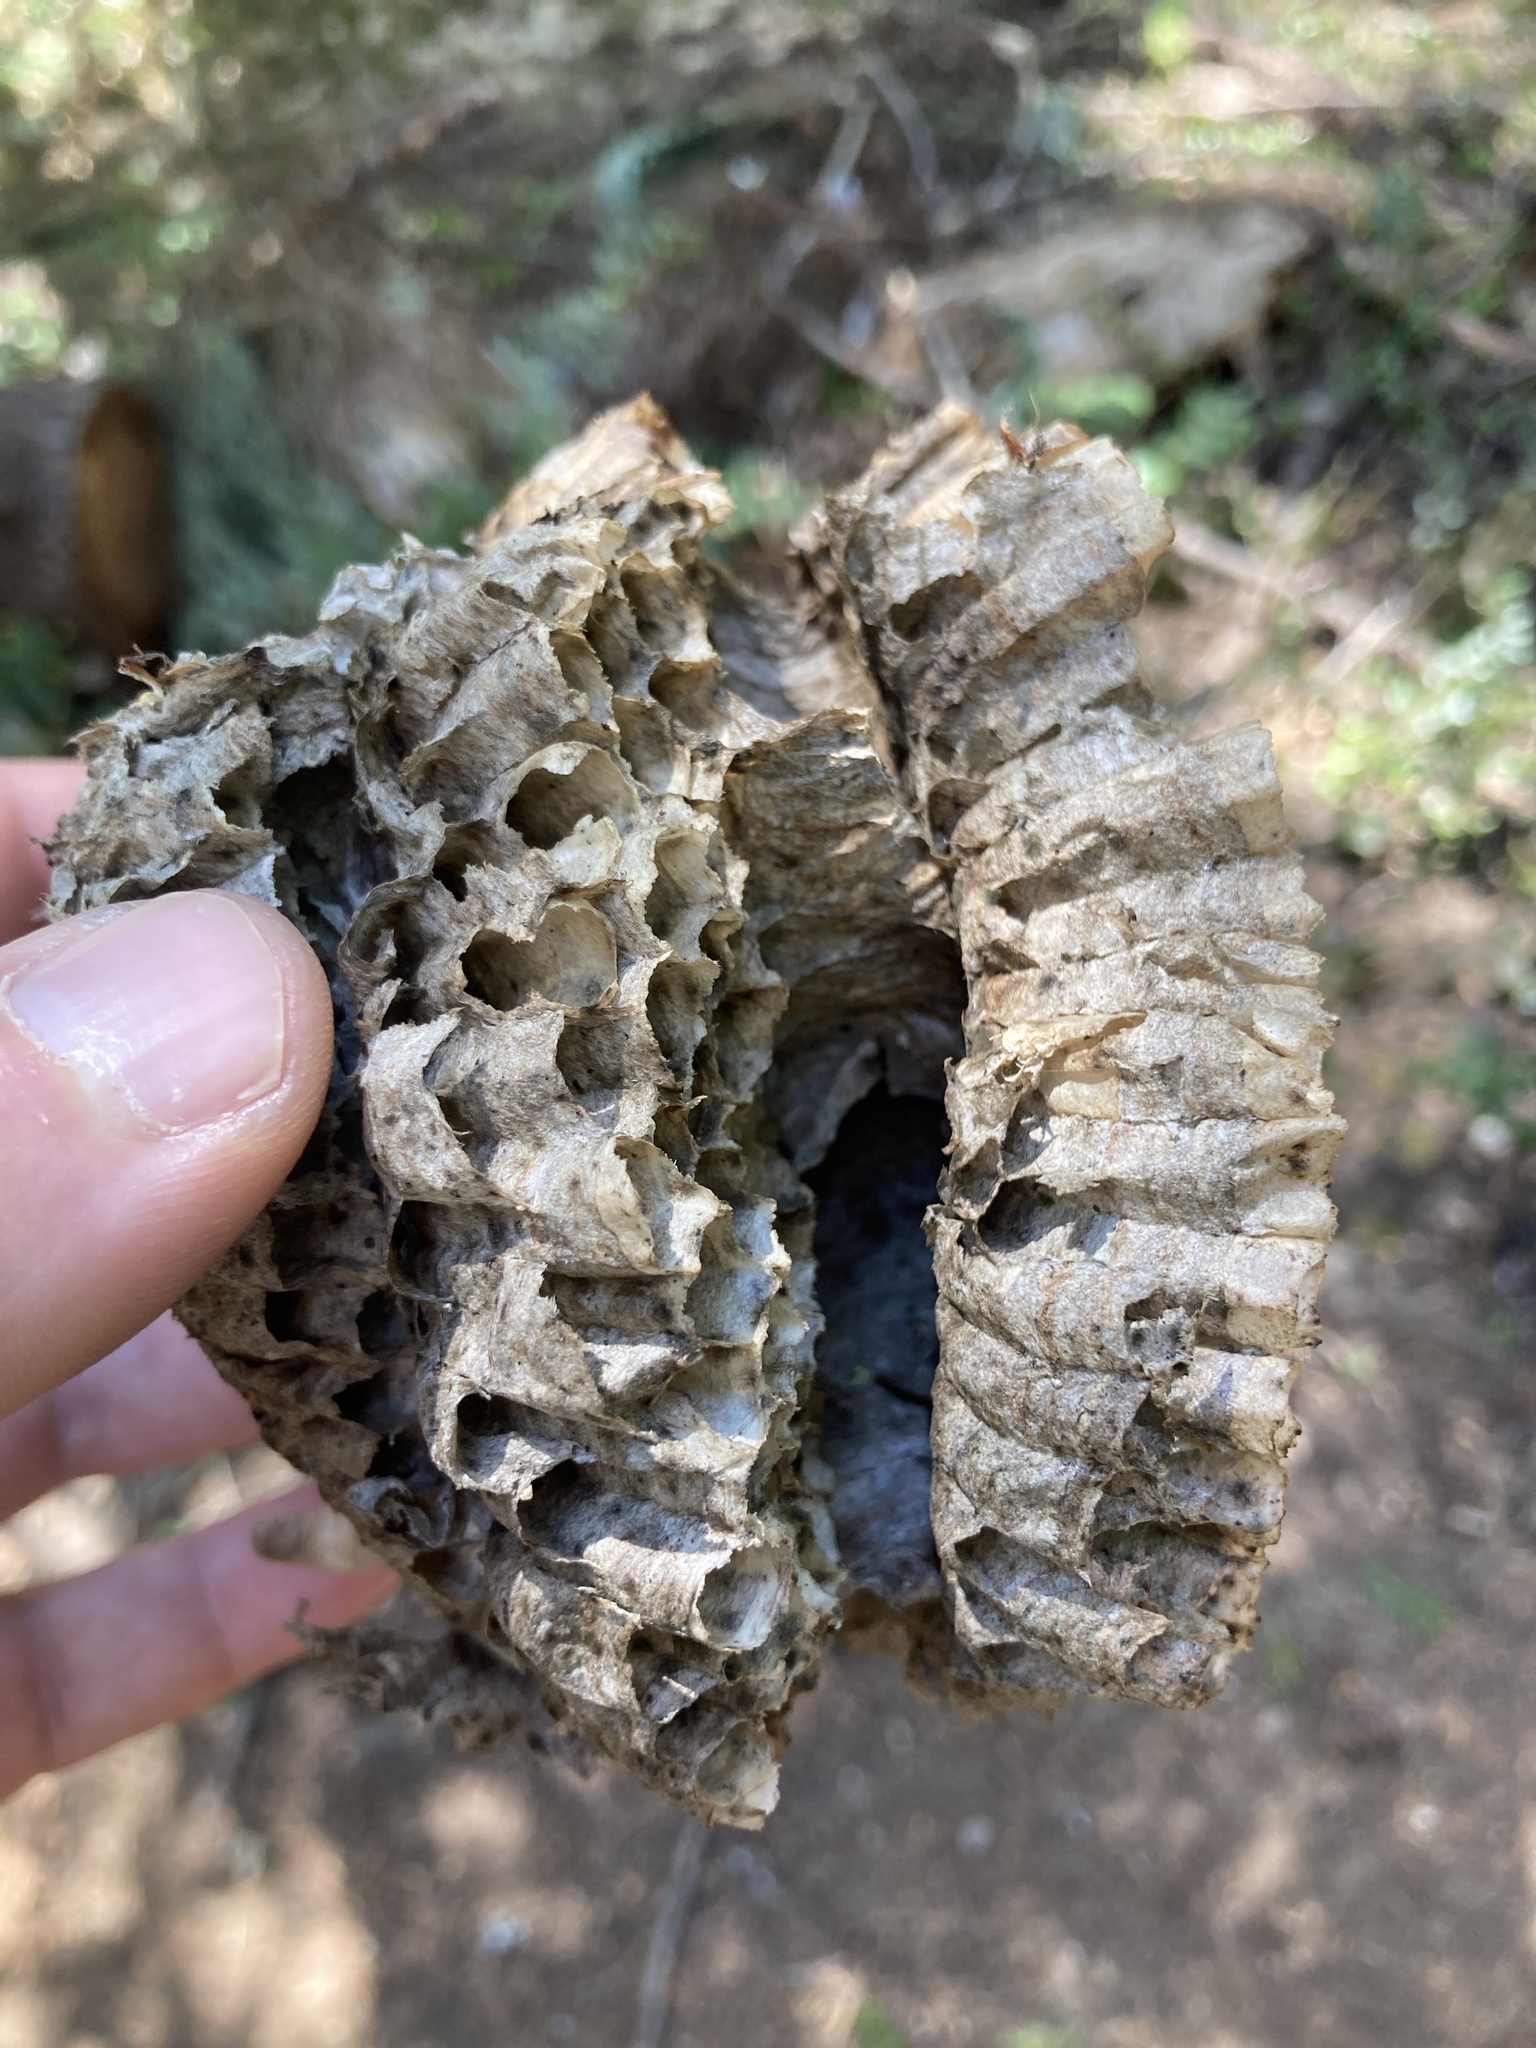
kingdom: Animalia
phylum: Arthropoda
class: Insecta
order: Hymenoptera
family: Vespidae
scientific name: Vespidae
